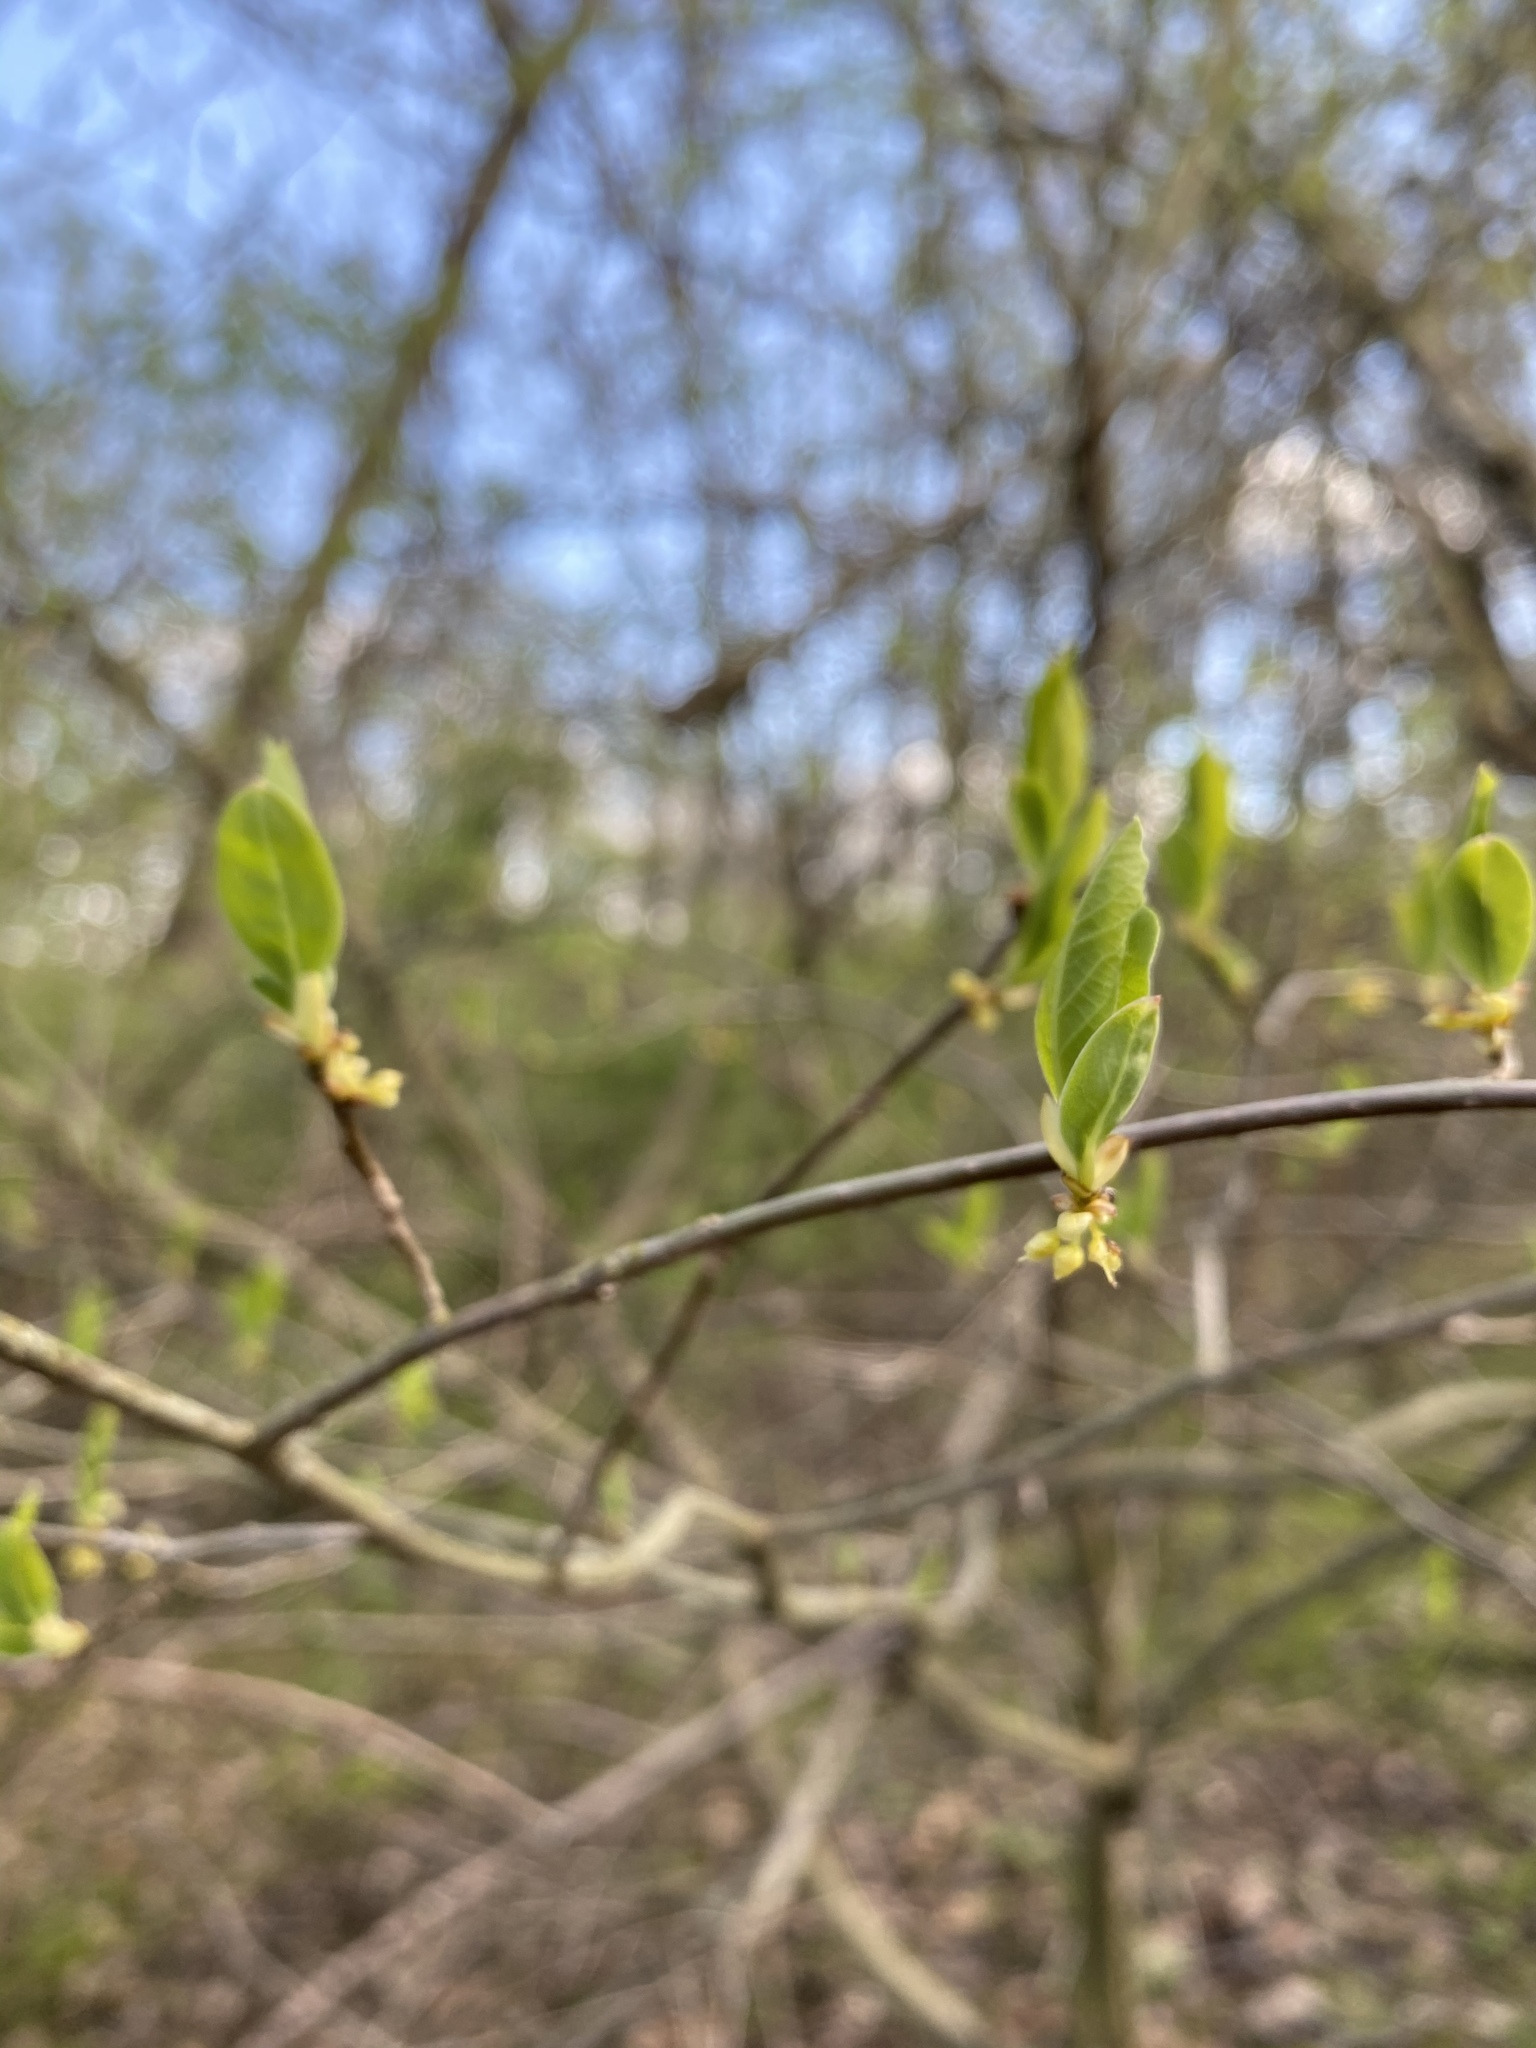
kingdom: Plantae
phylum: Tracheophyta
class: Magnoliopsida
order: Laurales
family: Lauraceae
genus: Lindera
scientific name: Lindera benzoin
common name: Spicebush
